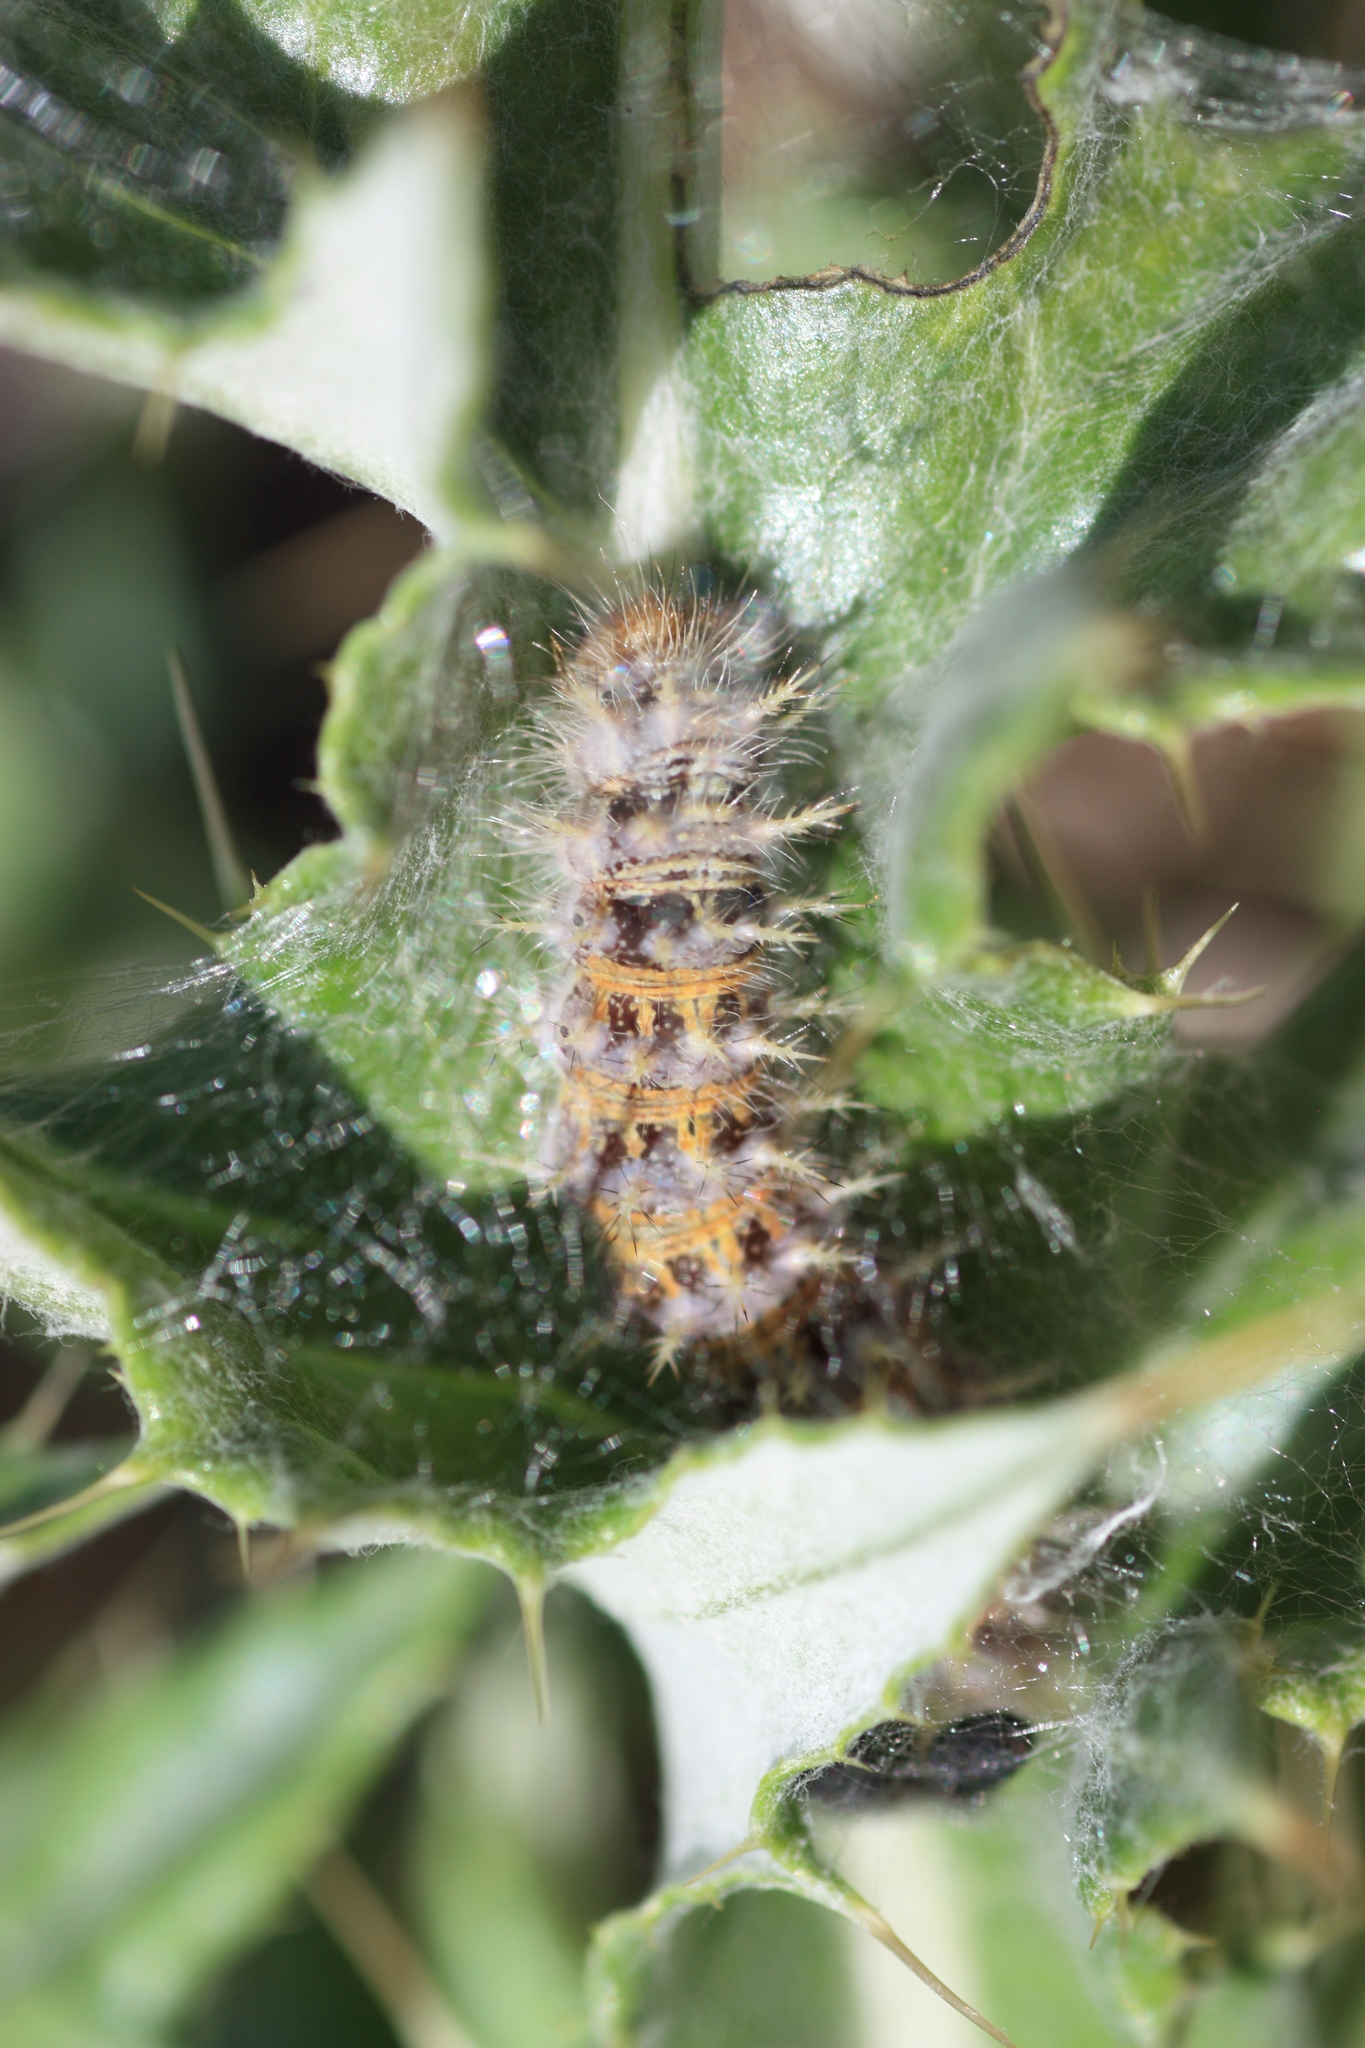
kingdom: Animalia
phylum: Arthropoda
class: Insecta
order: Lepidoptera
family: Nymphalidae
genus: Vanessa
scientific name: Vanessa cardui
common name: Painted lady
